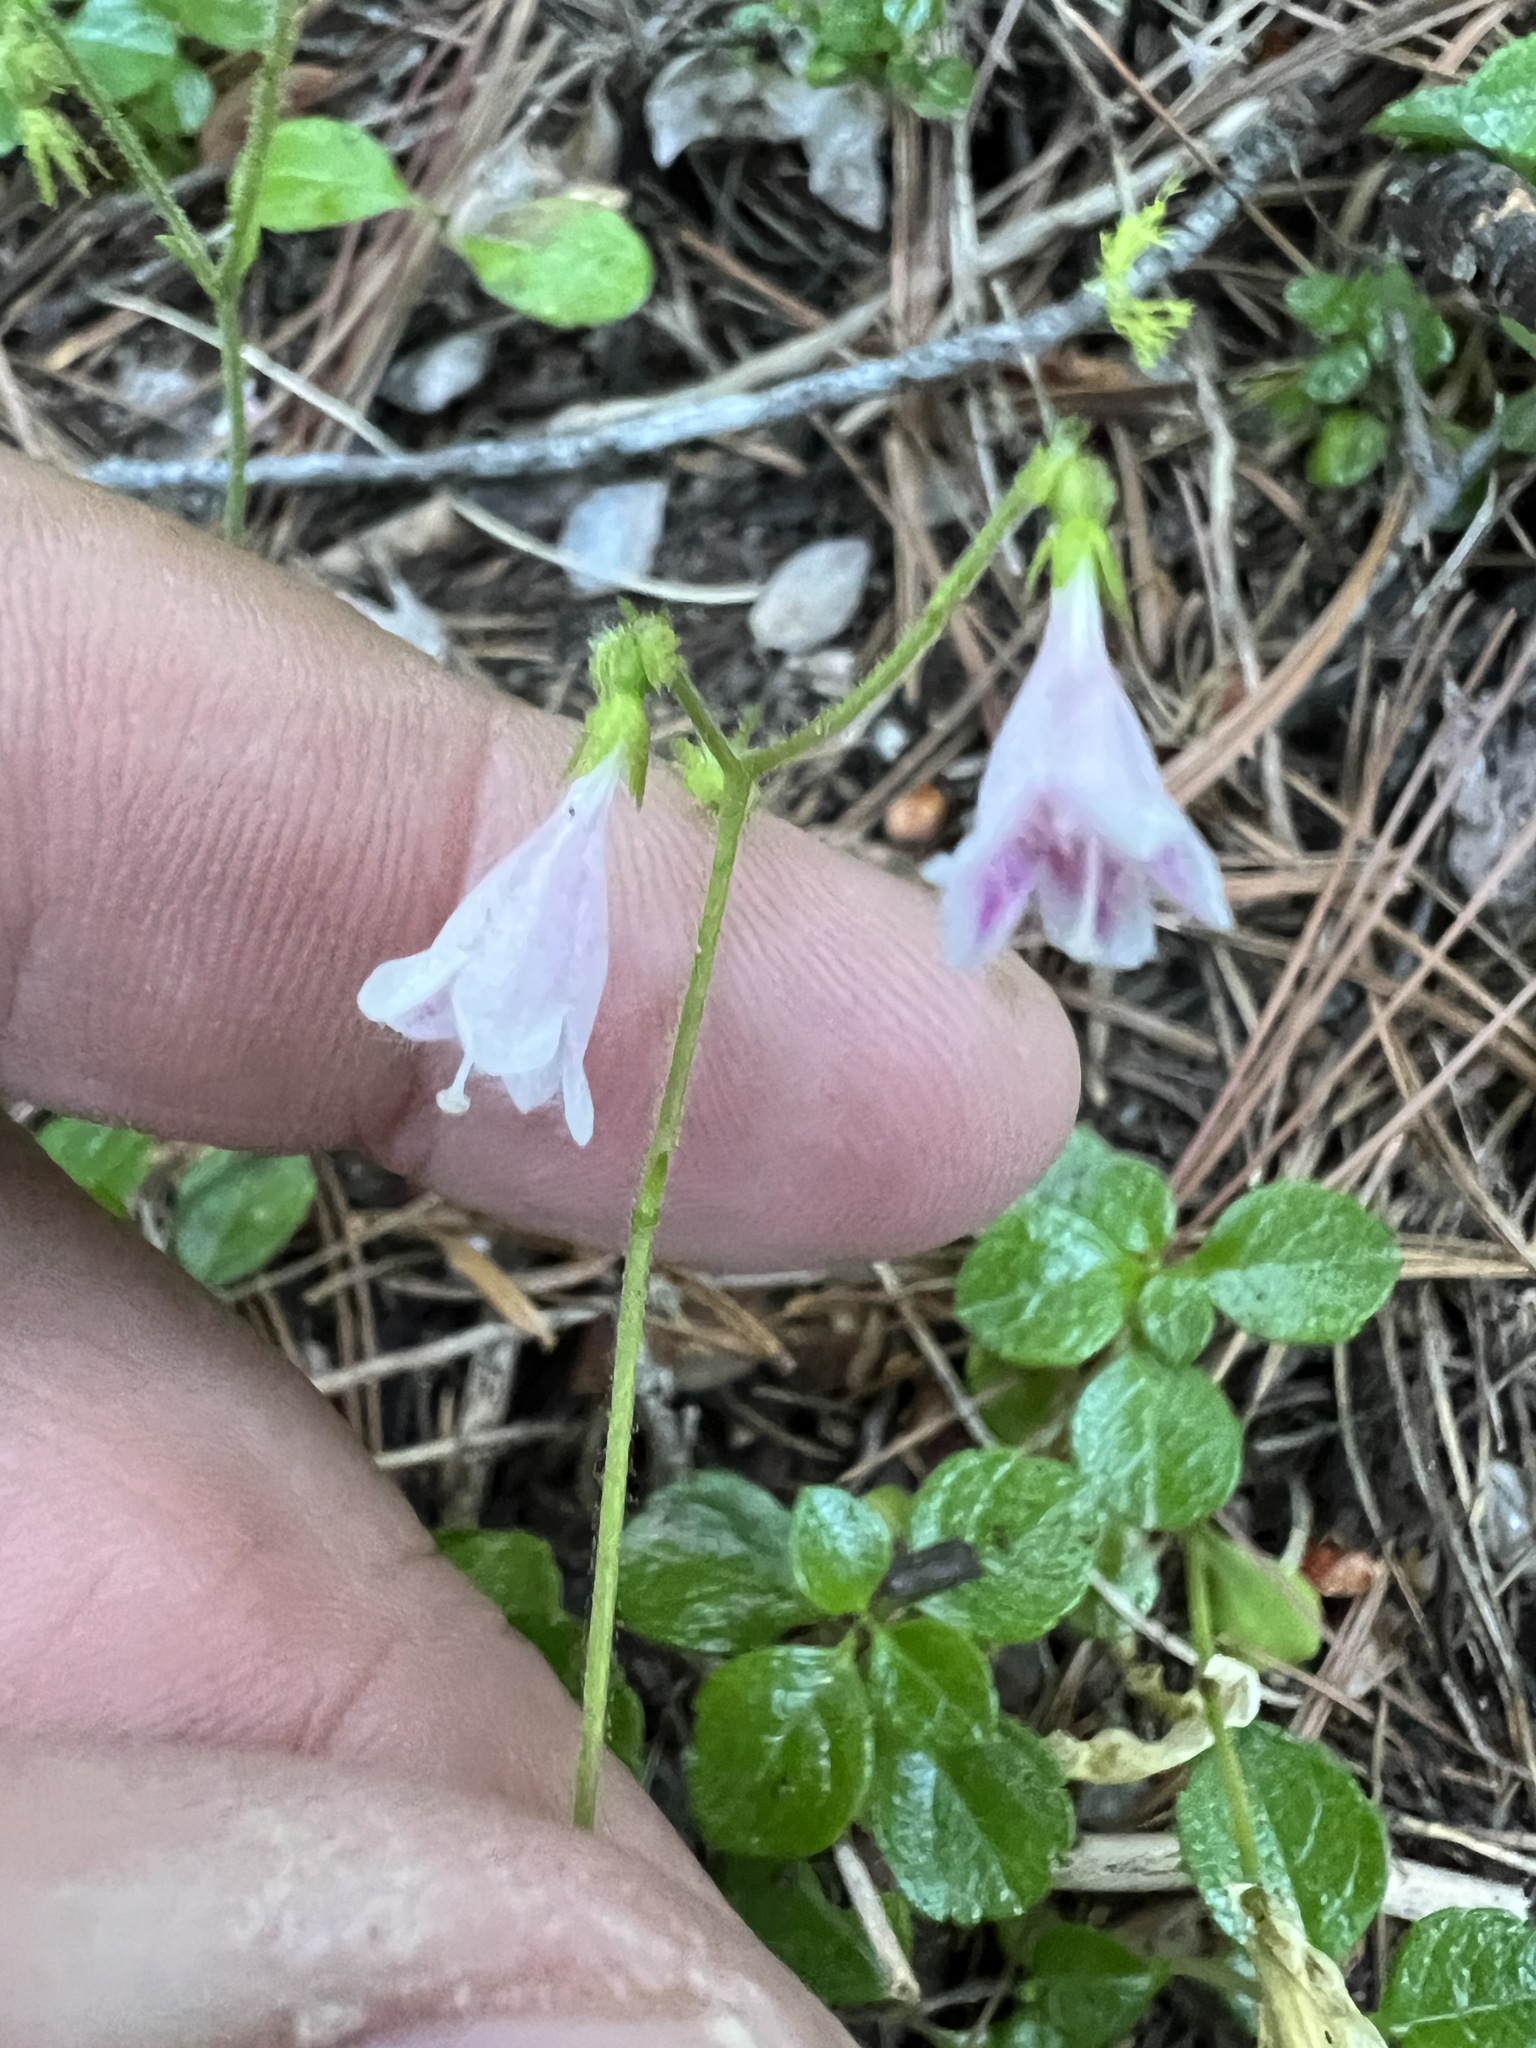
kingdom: Plantae
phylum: Tracheophyta
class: Magnoliopsida
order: Dipsacales
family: Caprifoliaceae
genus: Linnaea
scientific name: Linnaea borealis
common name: Twinflower
